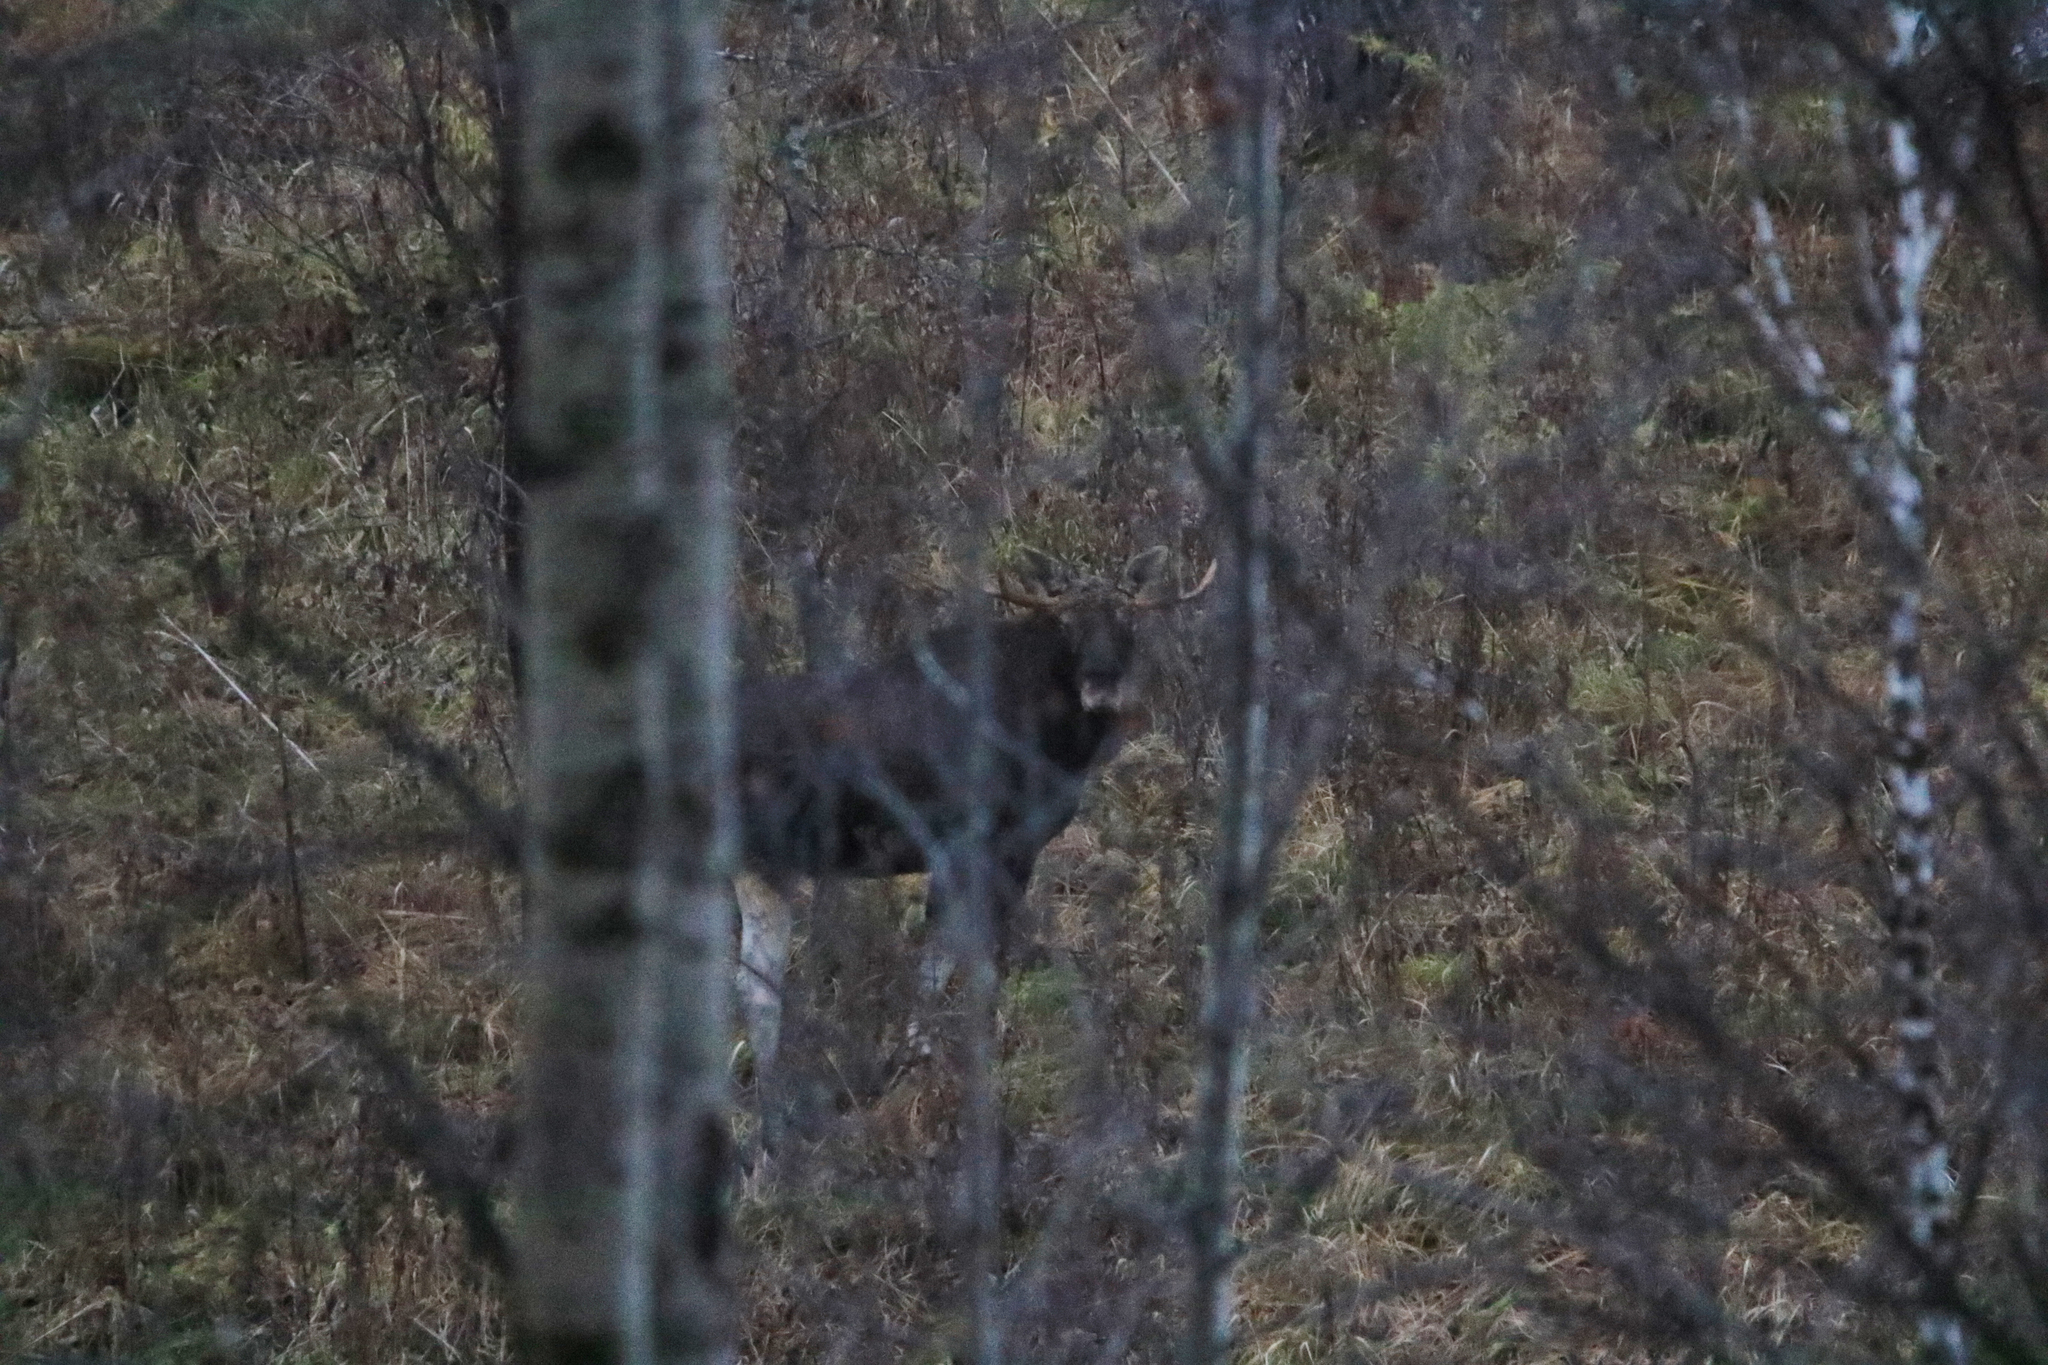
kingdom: Animalia
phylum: Chordata
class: Mammalia
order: Artiodactyla
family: Cervidae
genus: Alces
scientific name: Alces alces
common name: Moose
